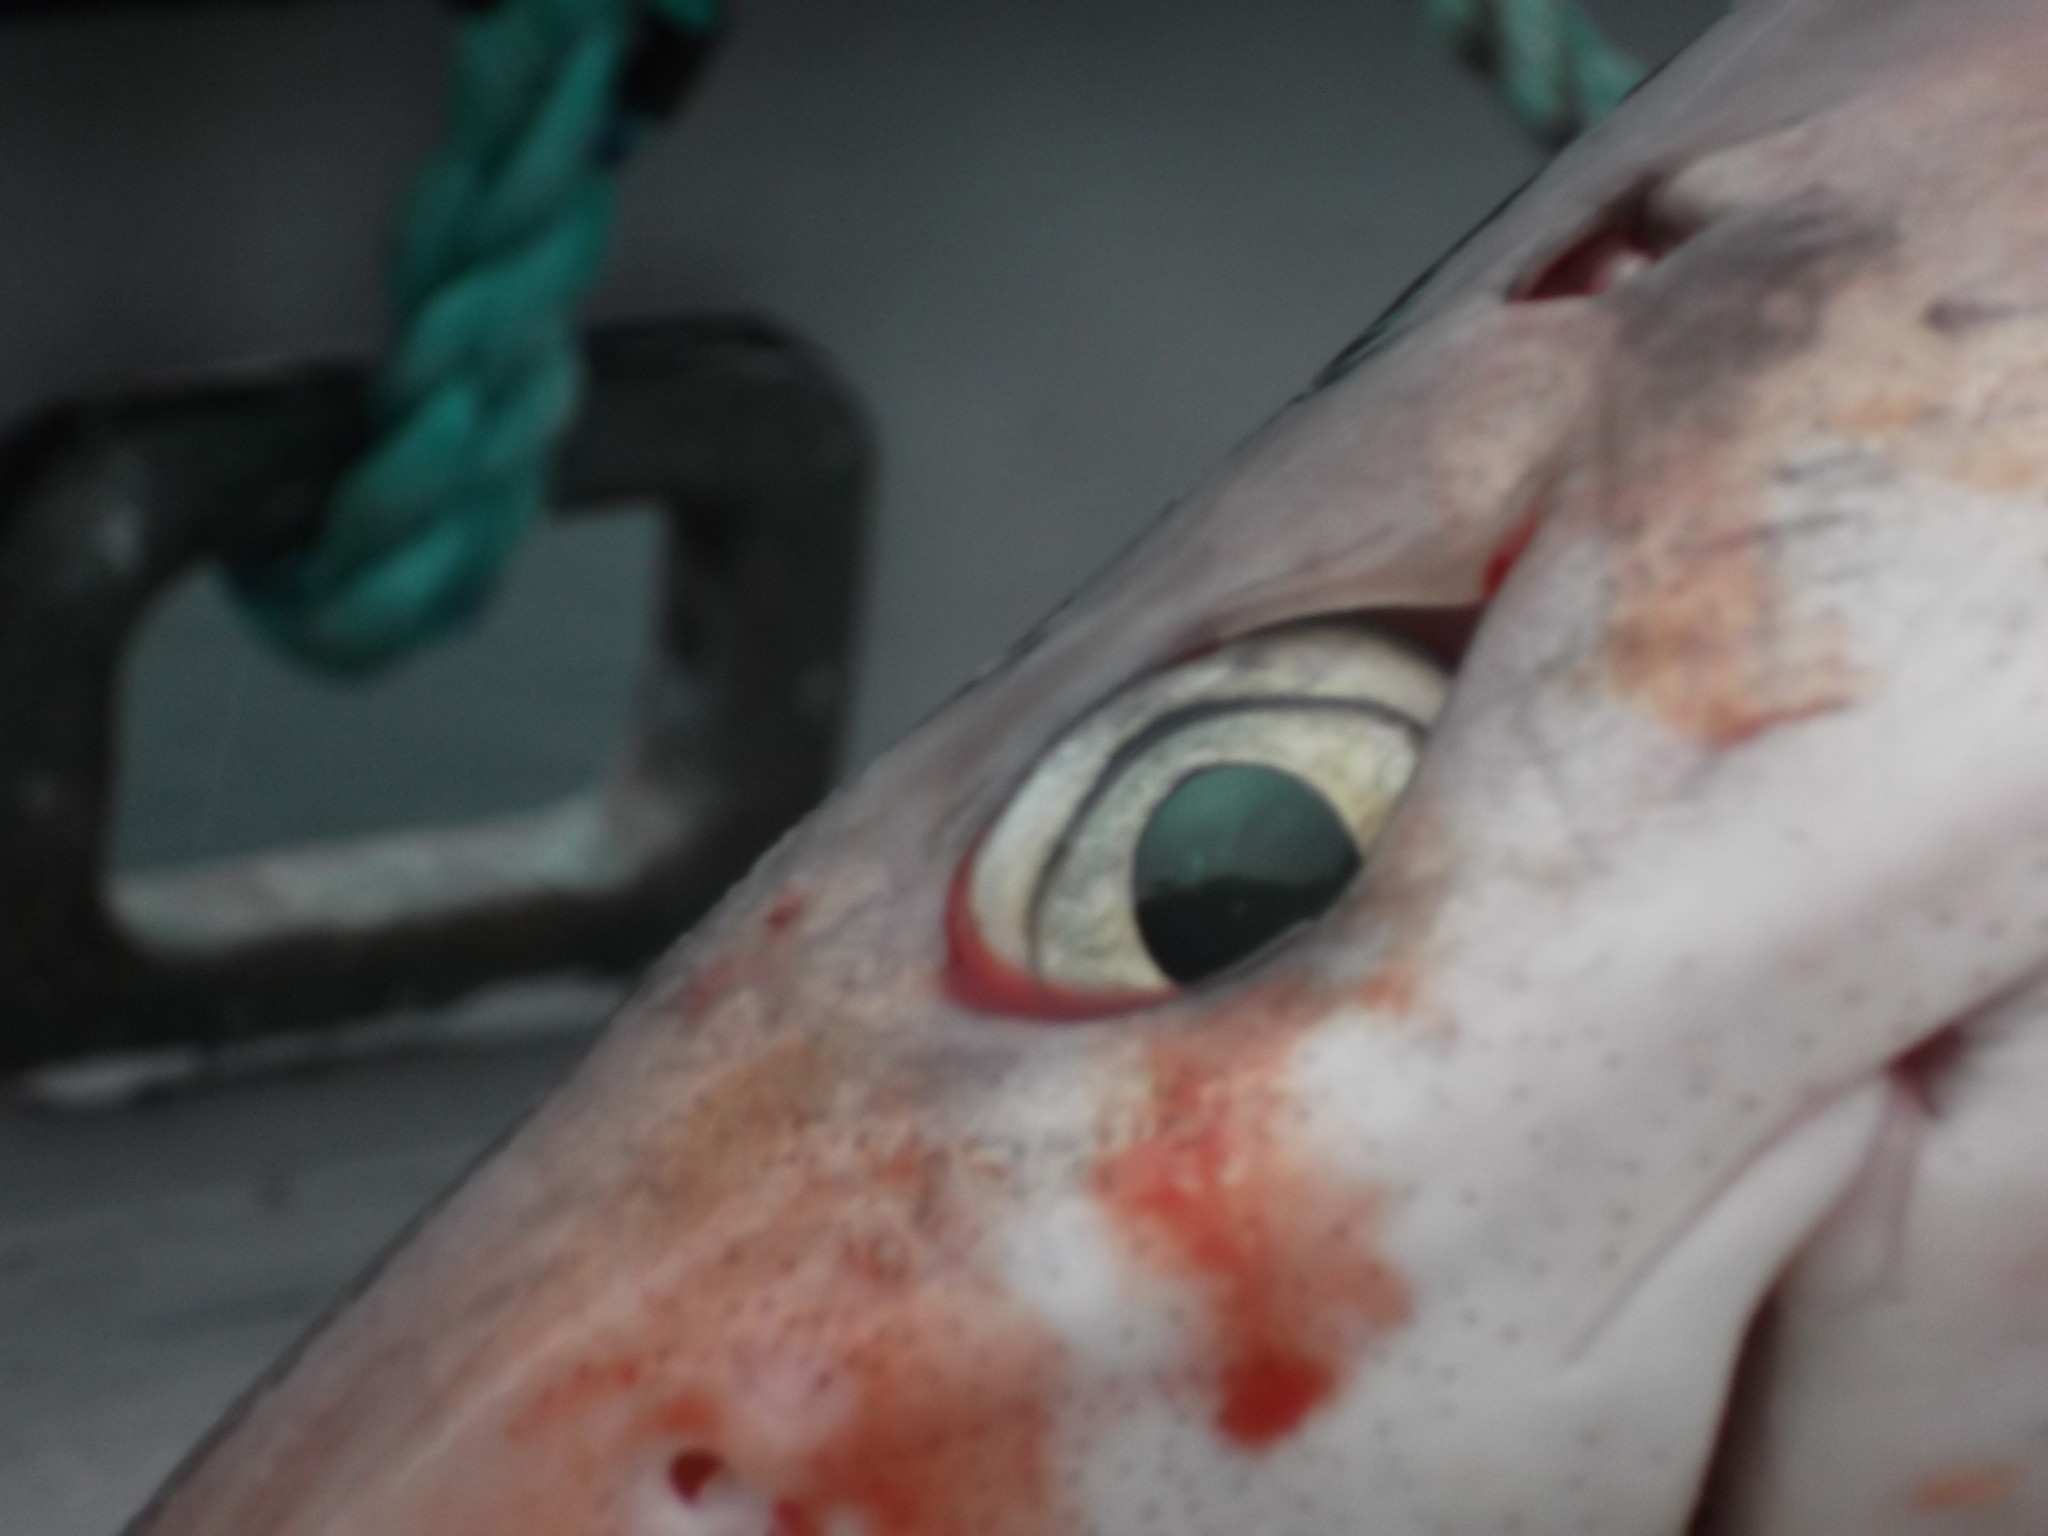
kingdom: Animalia
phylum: Chordata
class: Elasmobranchii
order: Squaliformes
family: Squalidae
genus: Squalus
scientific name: Squalus suckleyi
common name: Spiny dogfish
